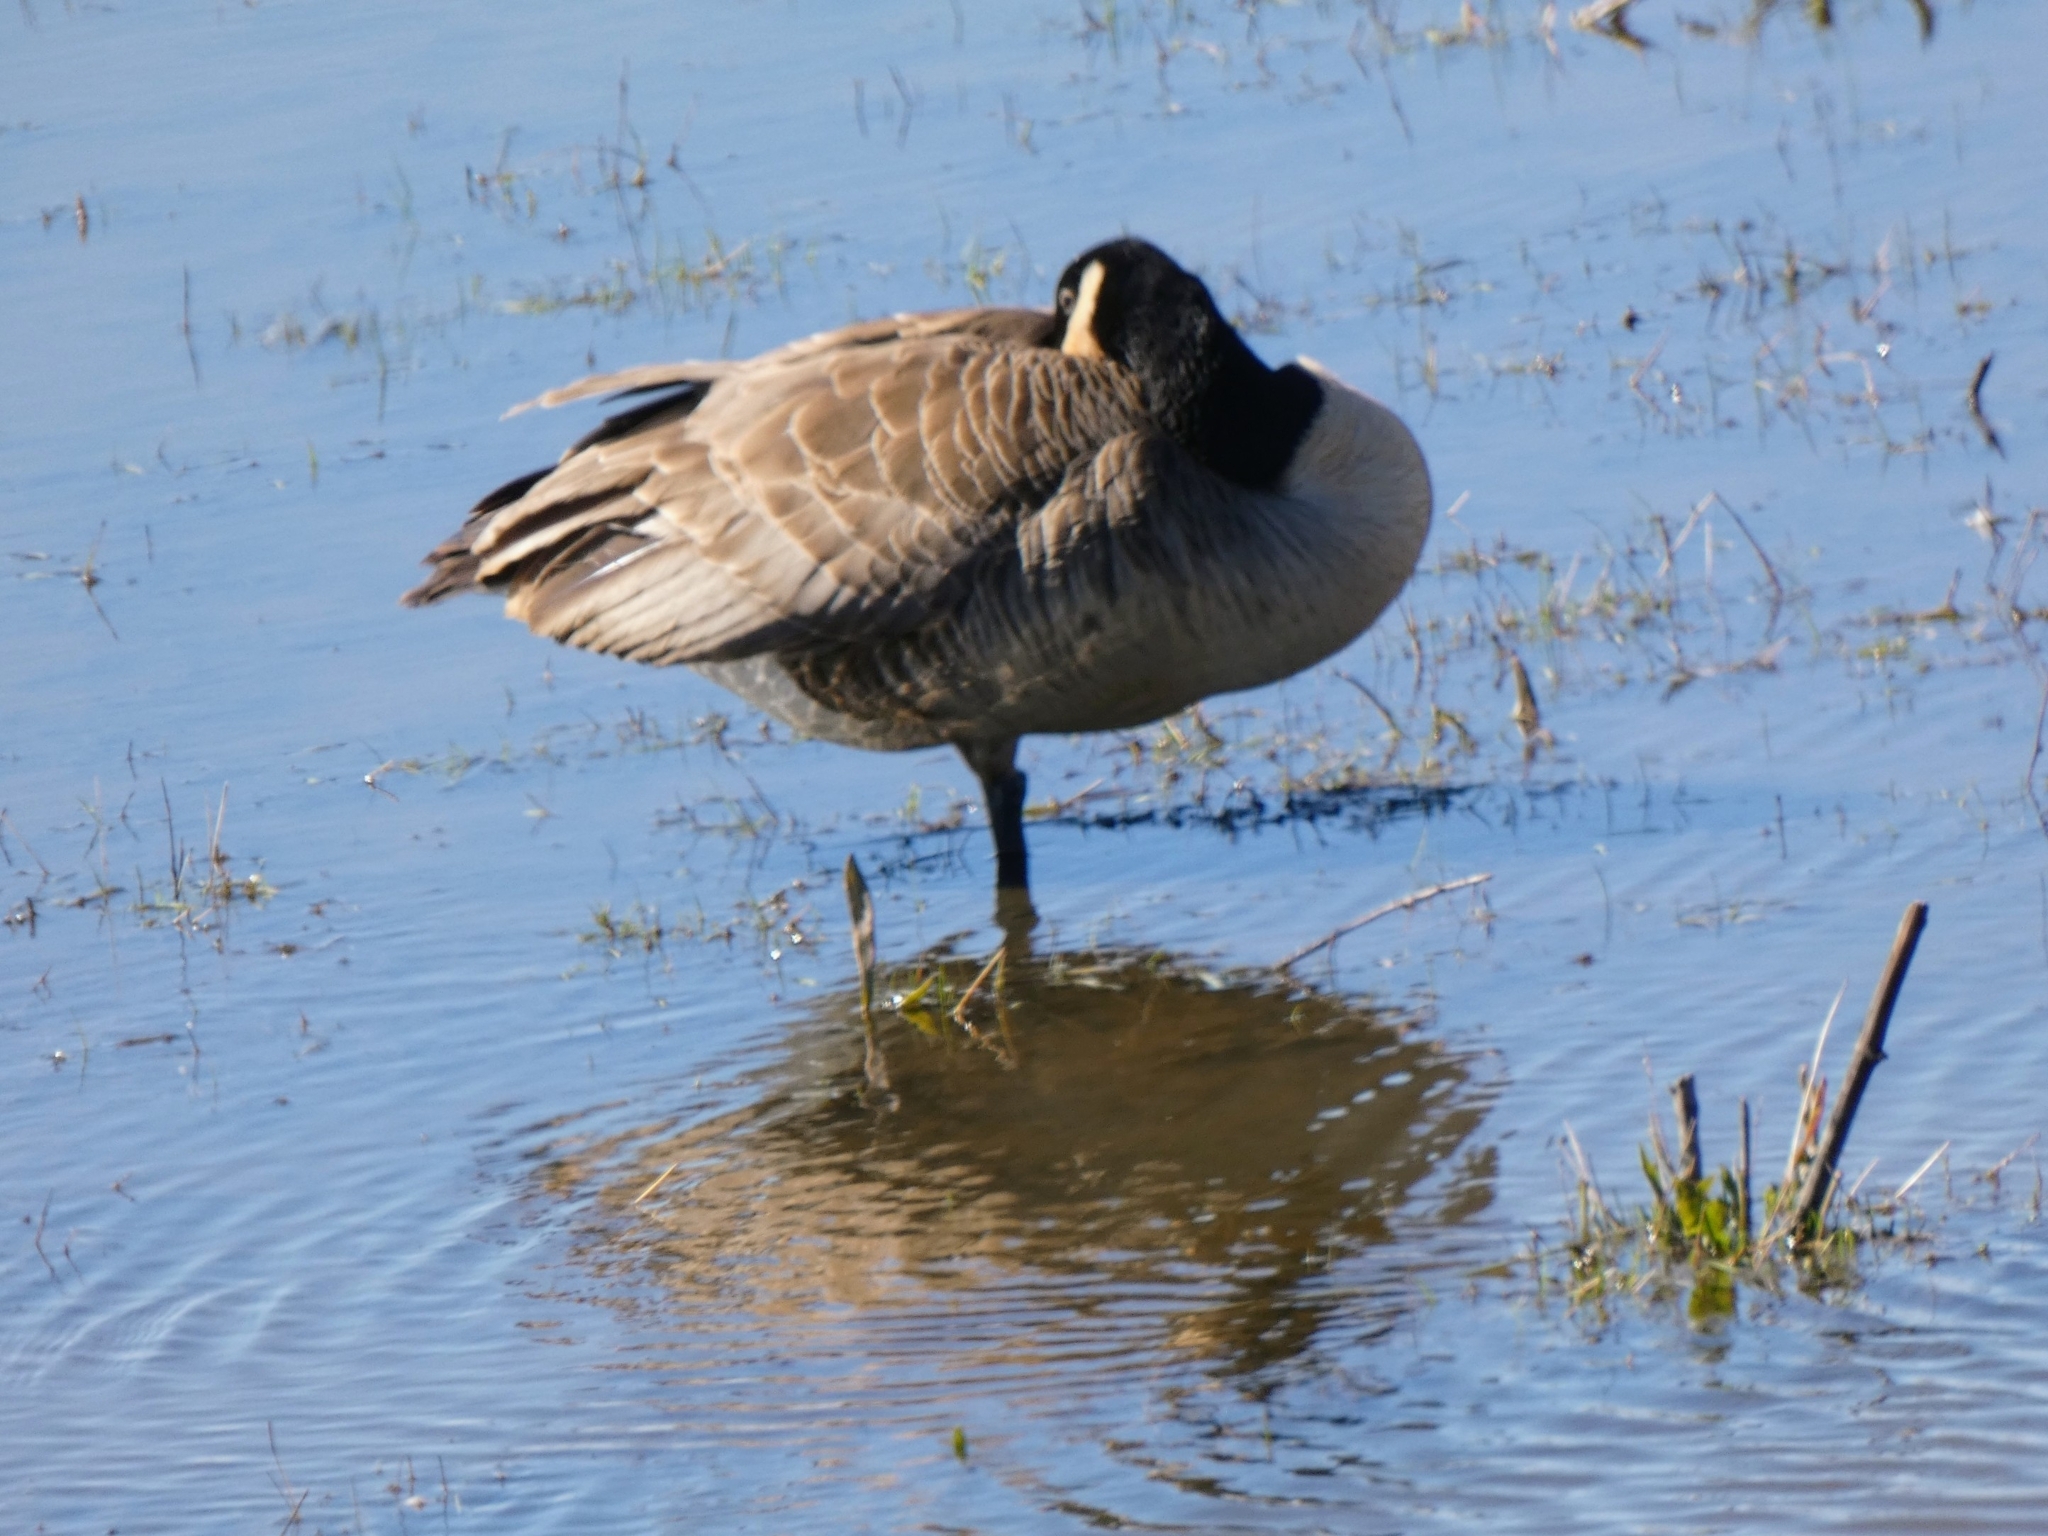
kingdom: Animalia
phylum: Chordata
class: Aves
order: Anseriformes
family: Anatidae
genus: Branta
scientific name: Branta canadensis
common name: Canada goose
